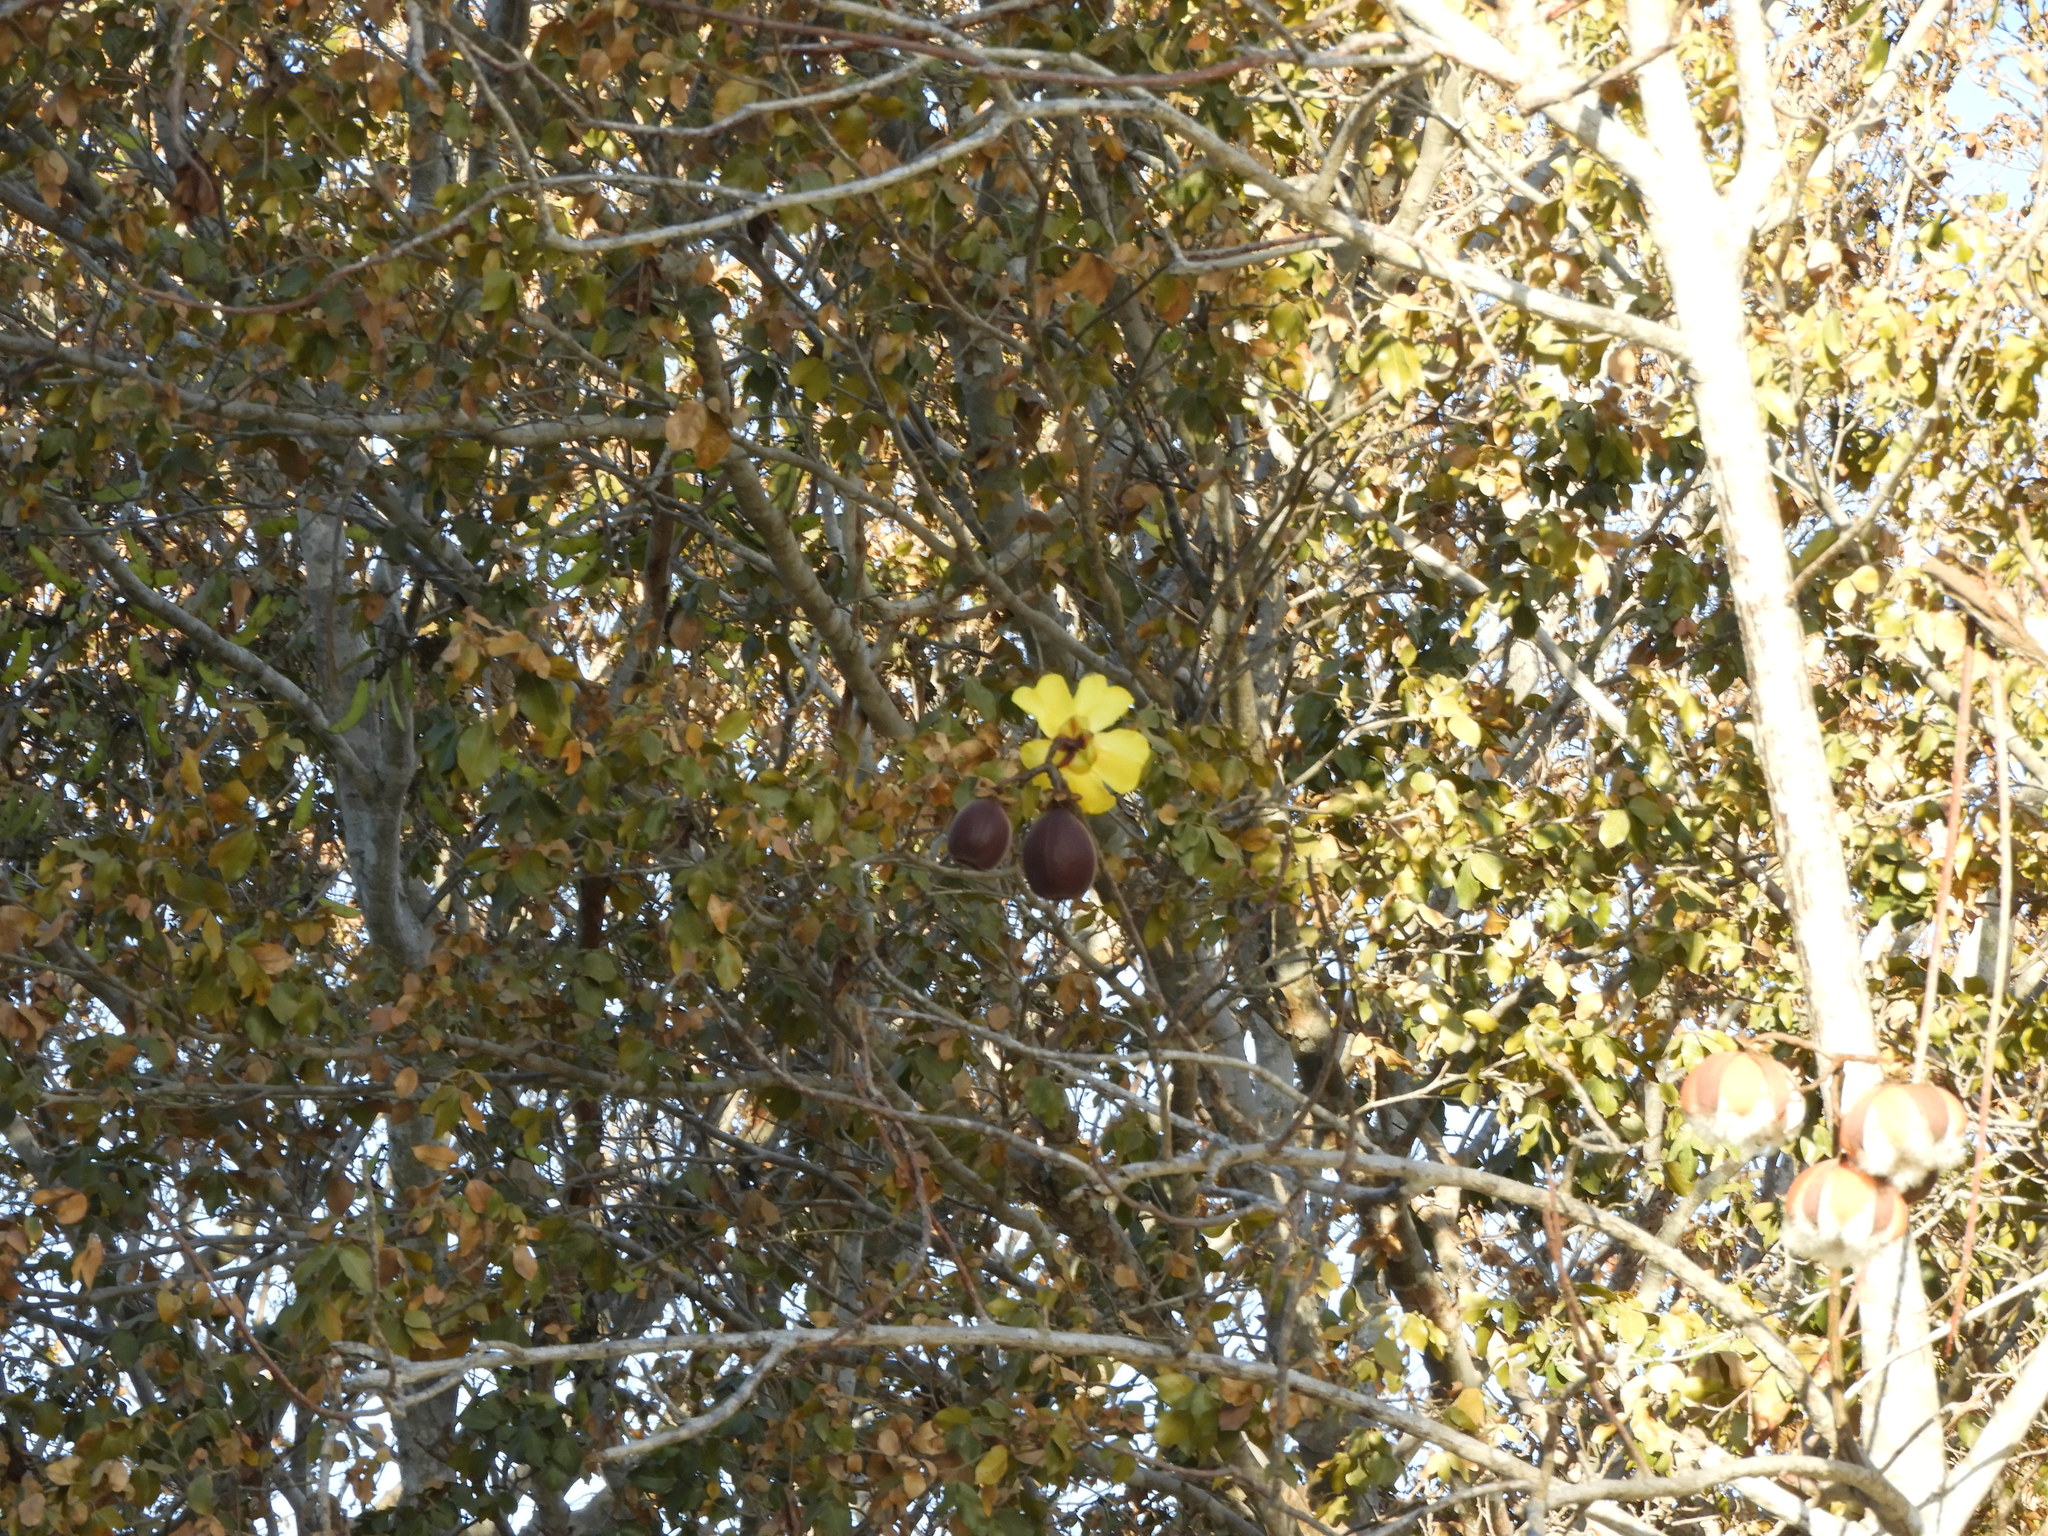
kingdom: Plantae
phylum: Tracheophyta
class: Magnoliopsida
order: Malvales
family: Cochlospermaceae
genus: Cochlospermum
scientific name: Cochlospermum vitifolium
